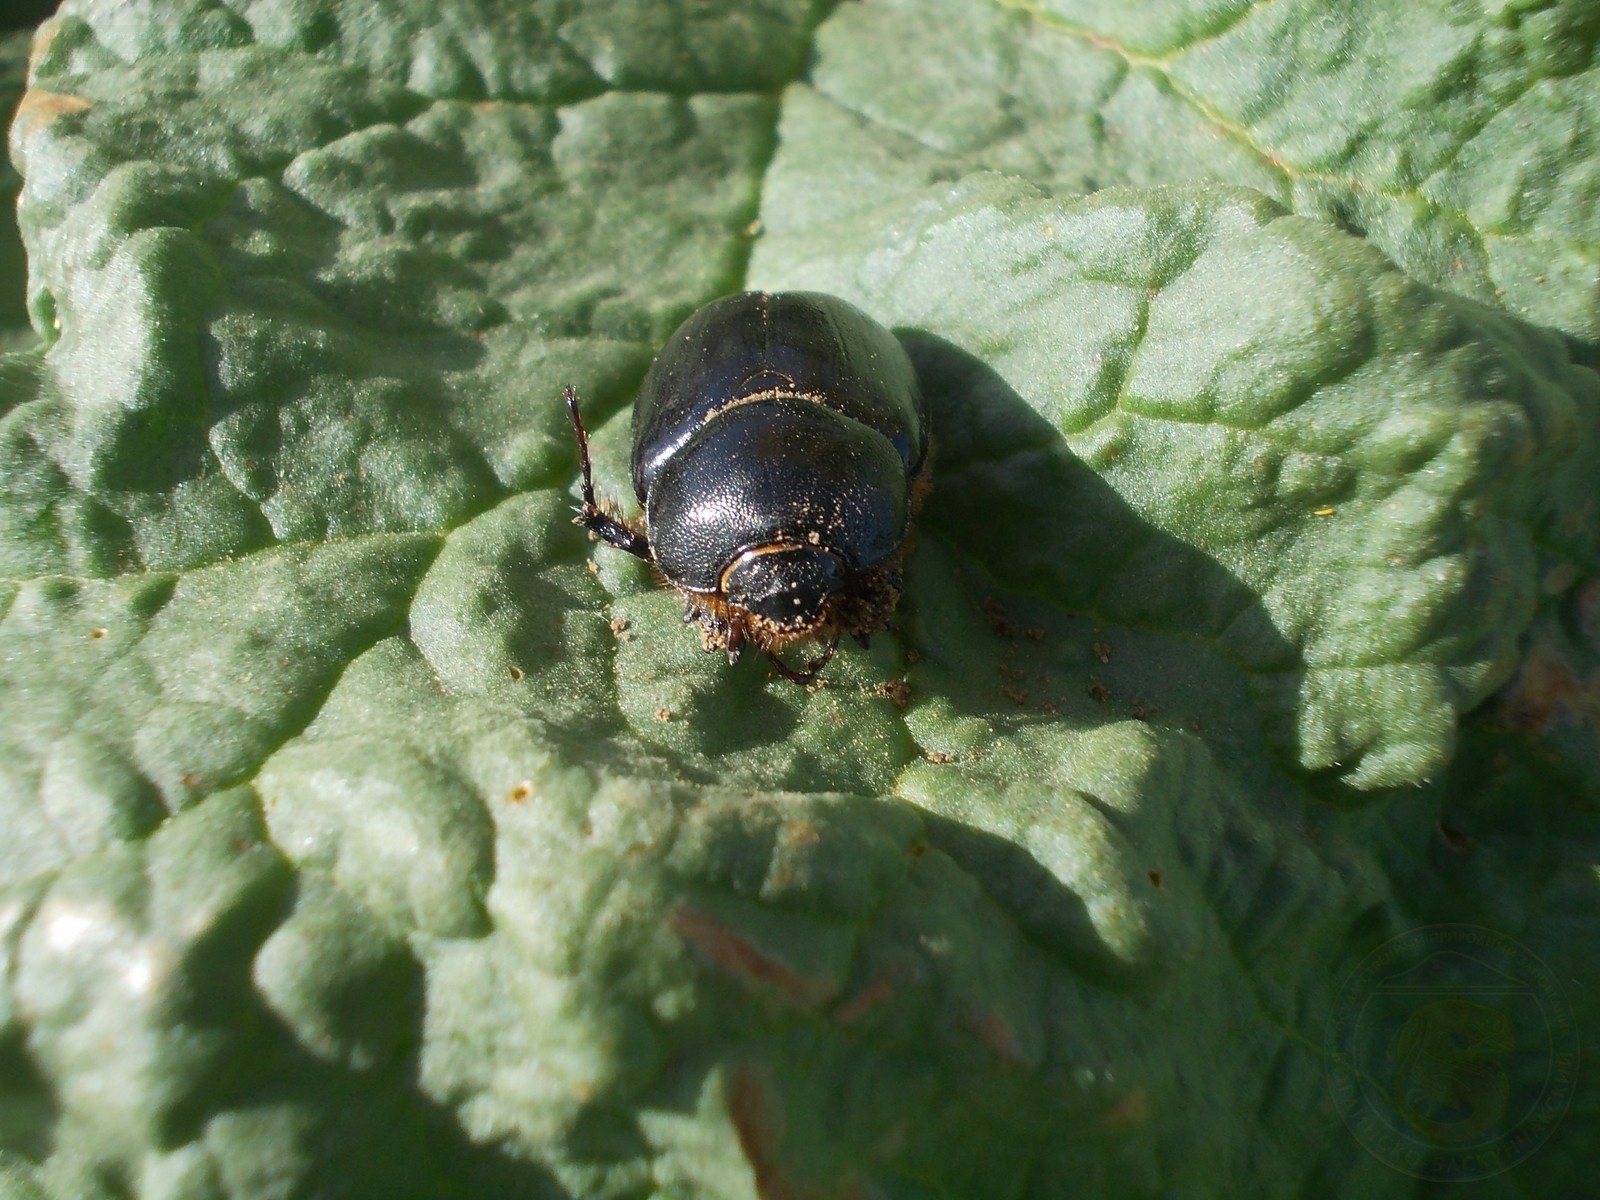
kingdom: Animalia
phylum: Arthropoda
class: Insecta
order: Coleoptera
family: Scarabaeidae
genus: Pentodon
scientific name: Pentodon bidens
